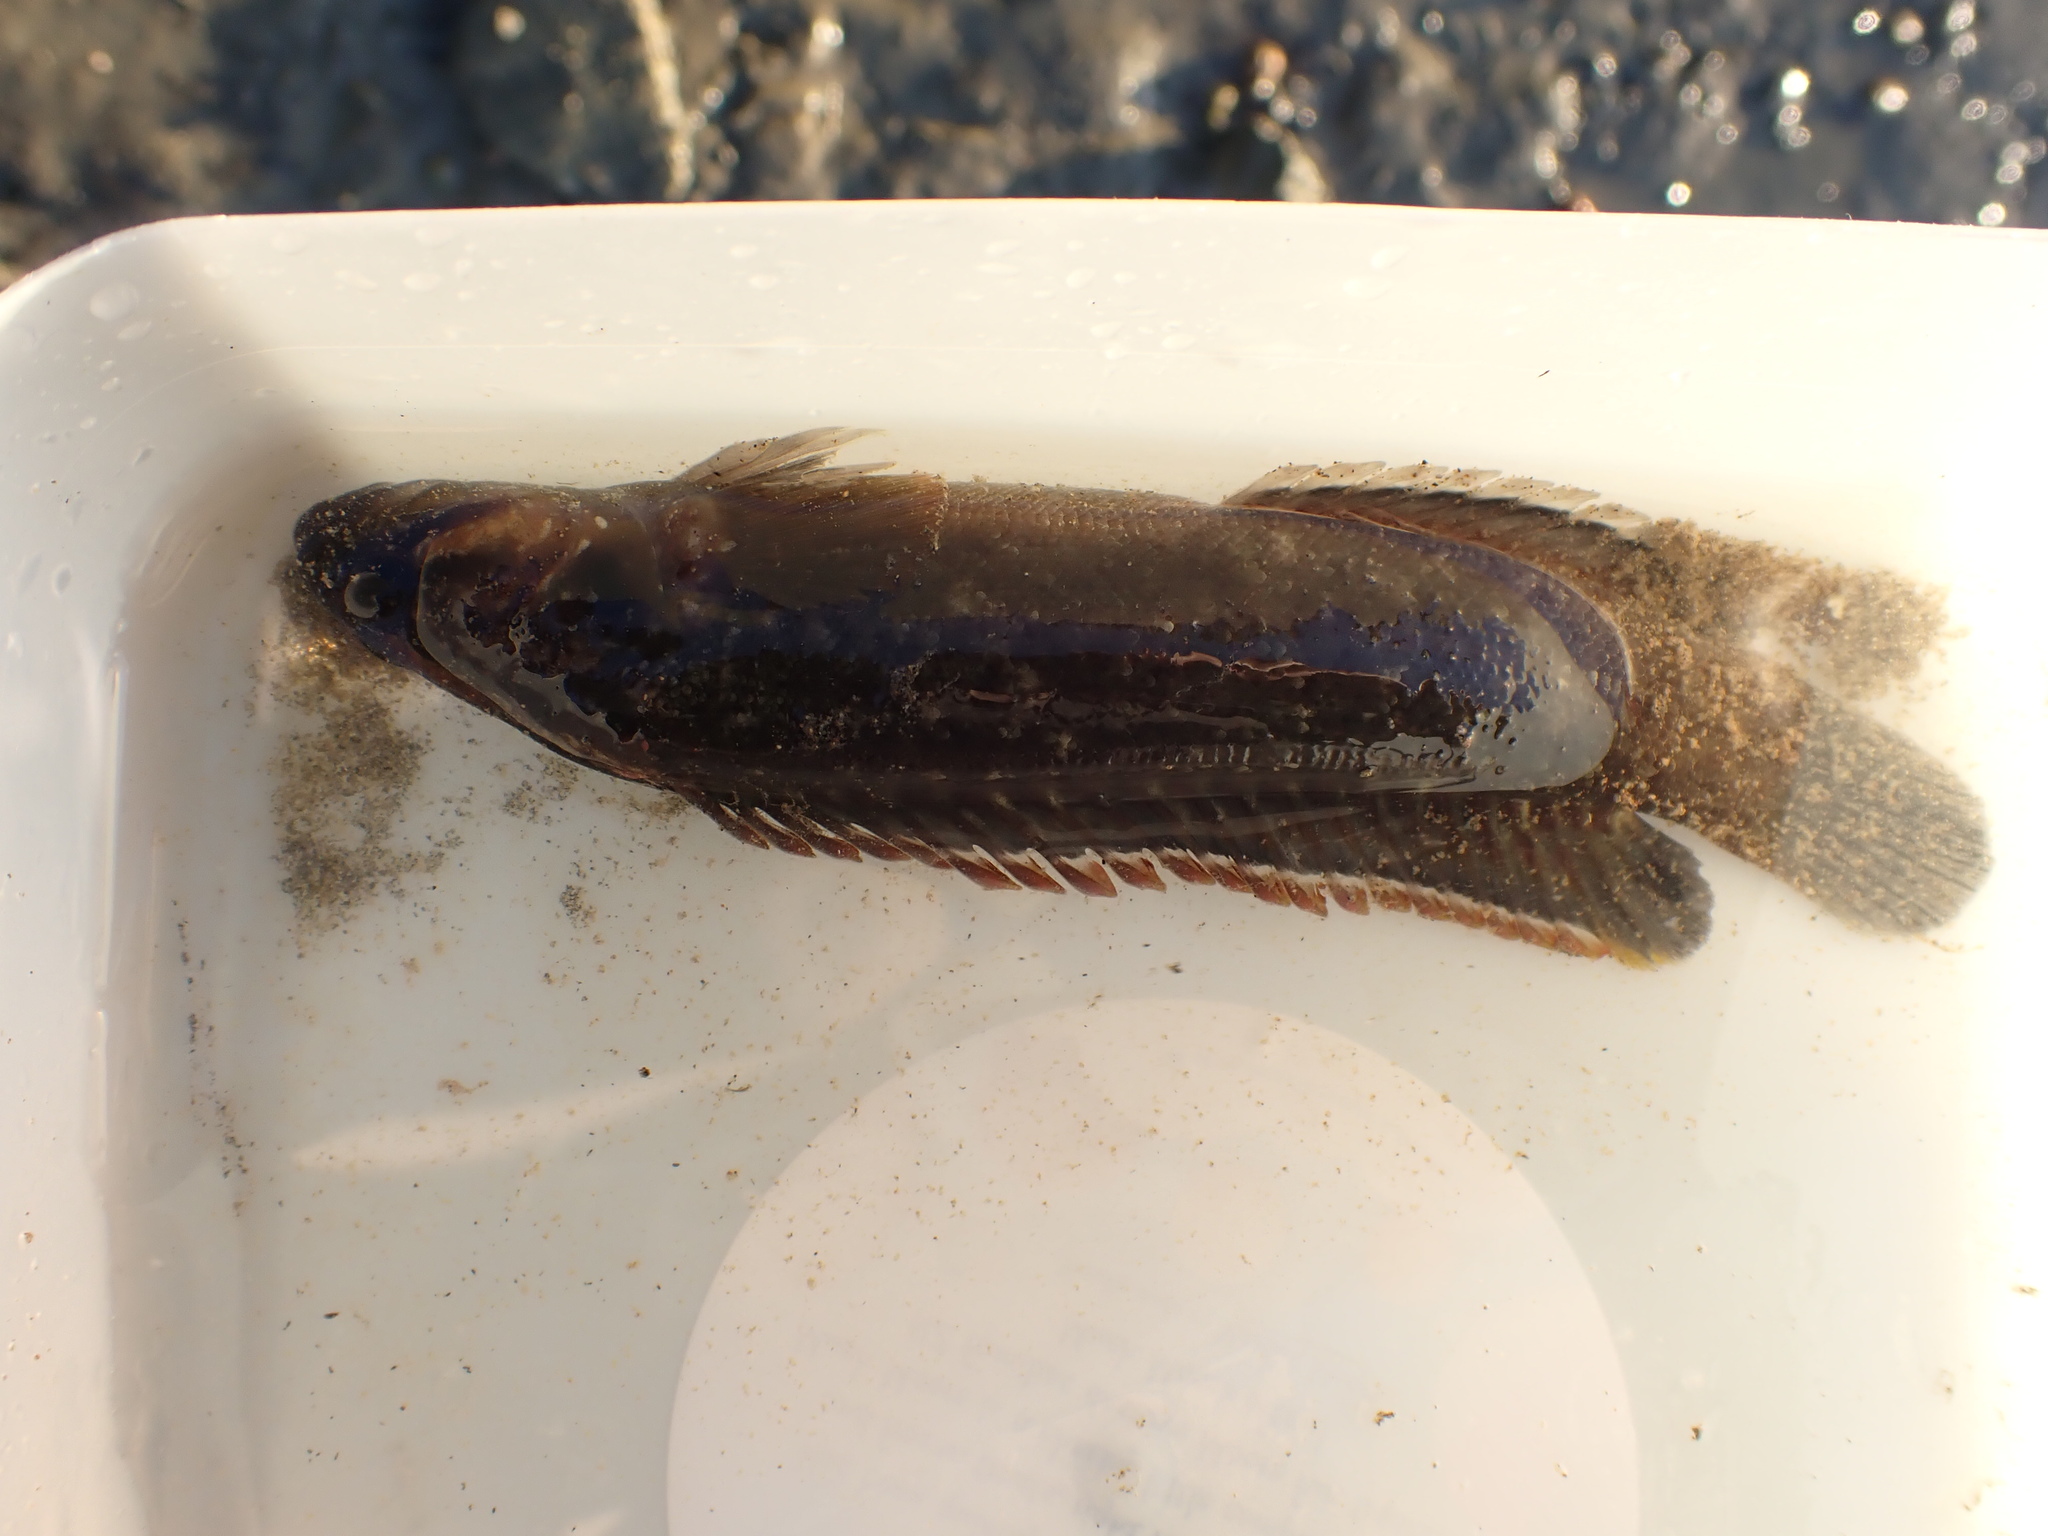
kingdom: Animalia
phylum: Chordata
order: Perciformes
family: Plesiopidae
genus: Acanthoclinus
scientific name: Acanthoclinus fuscus
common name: Olive rockfish
